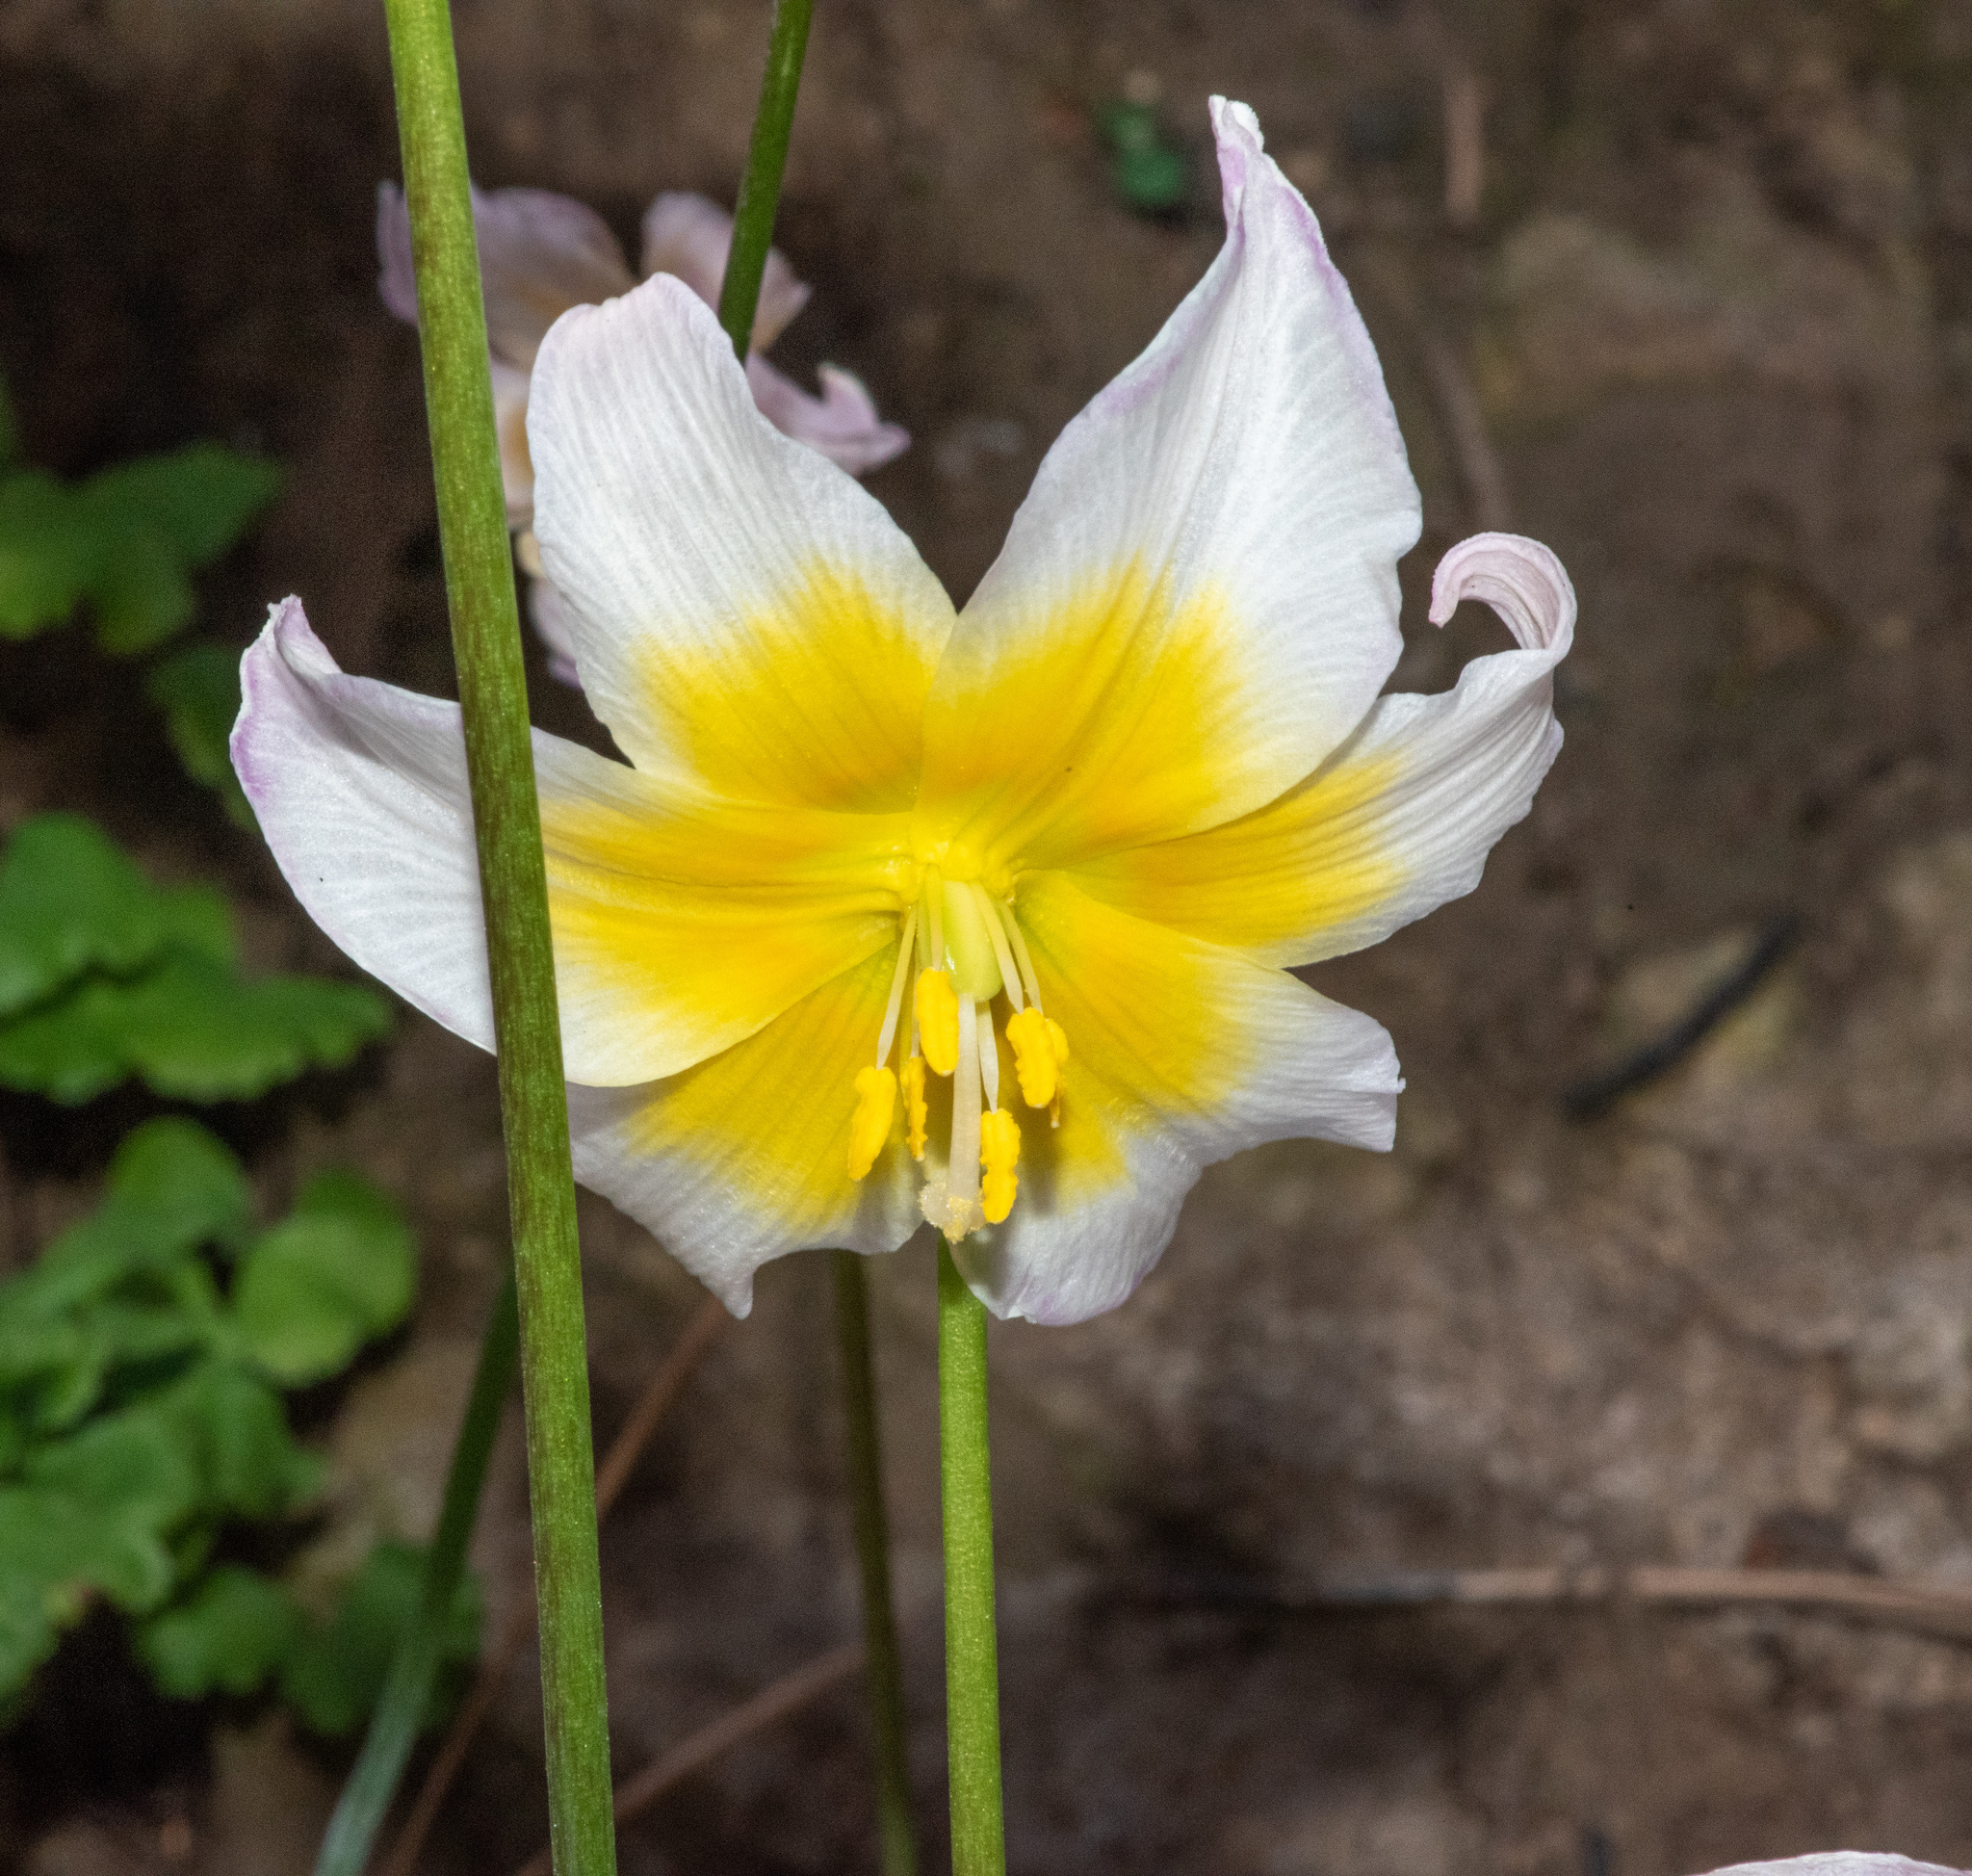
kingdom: Plantae
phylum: Tracheophyta
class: Liliopsida
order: Liliales
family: Liliaceae
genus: Erythronium
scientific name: Erythronium helenae
